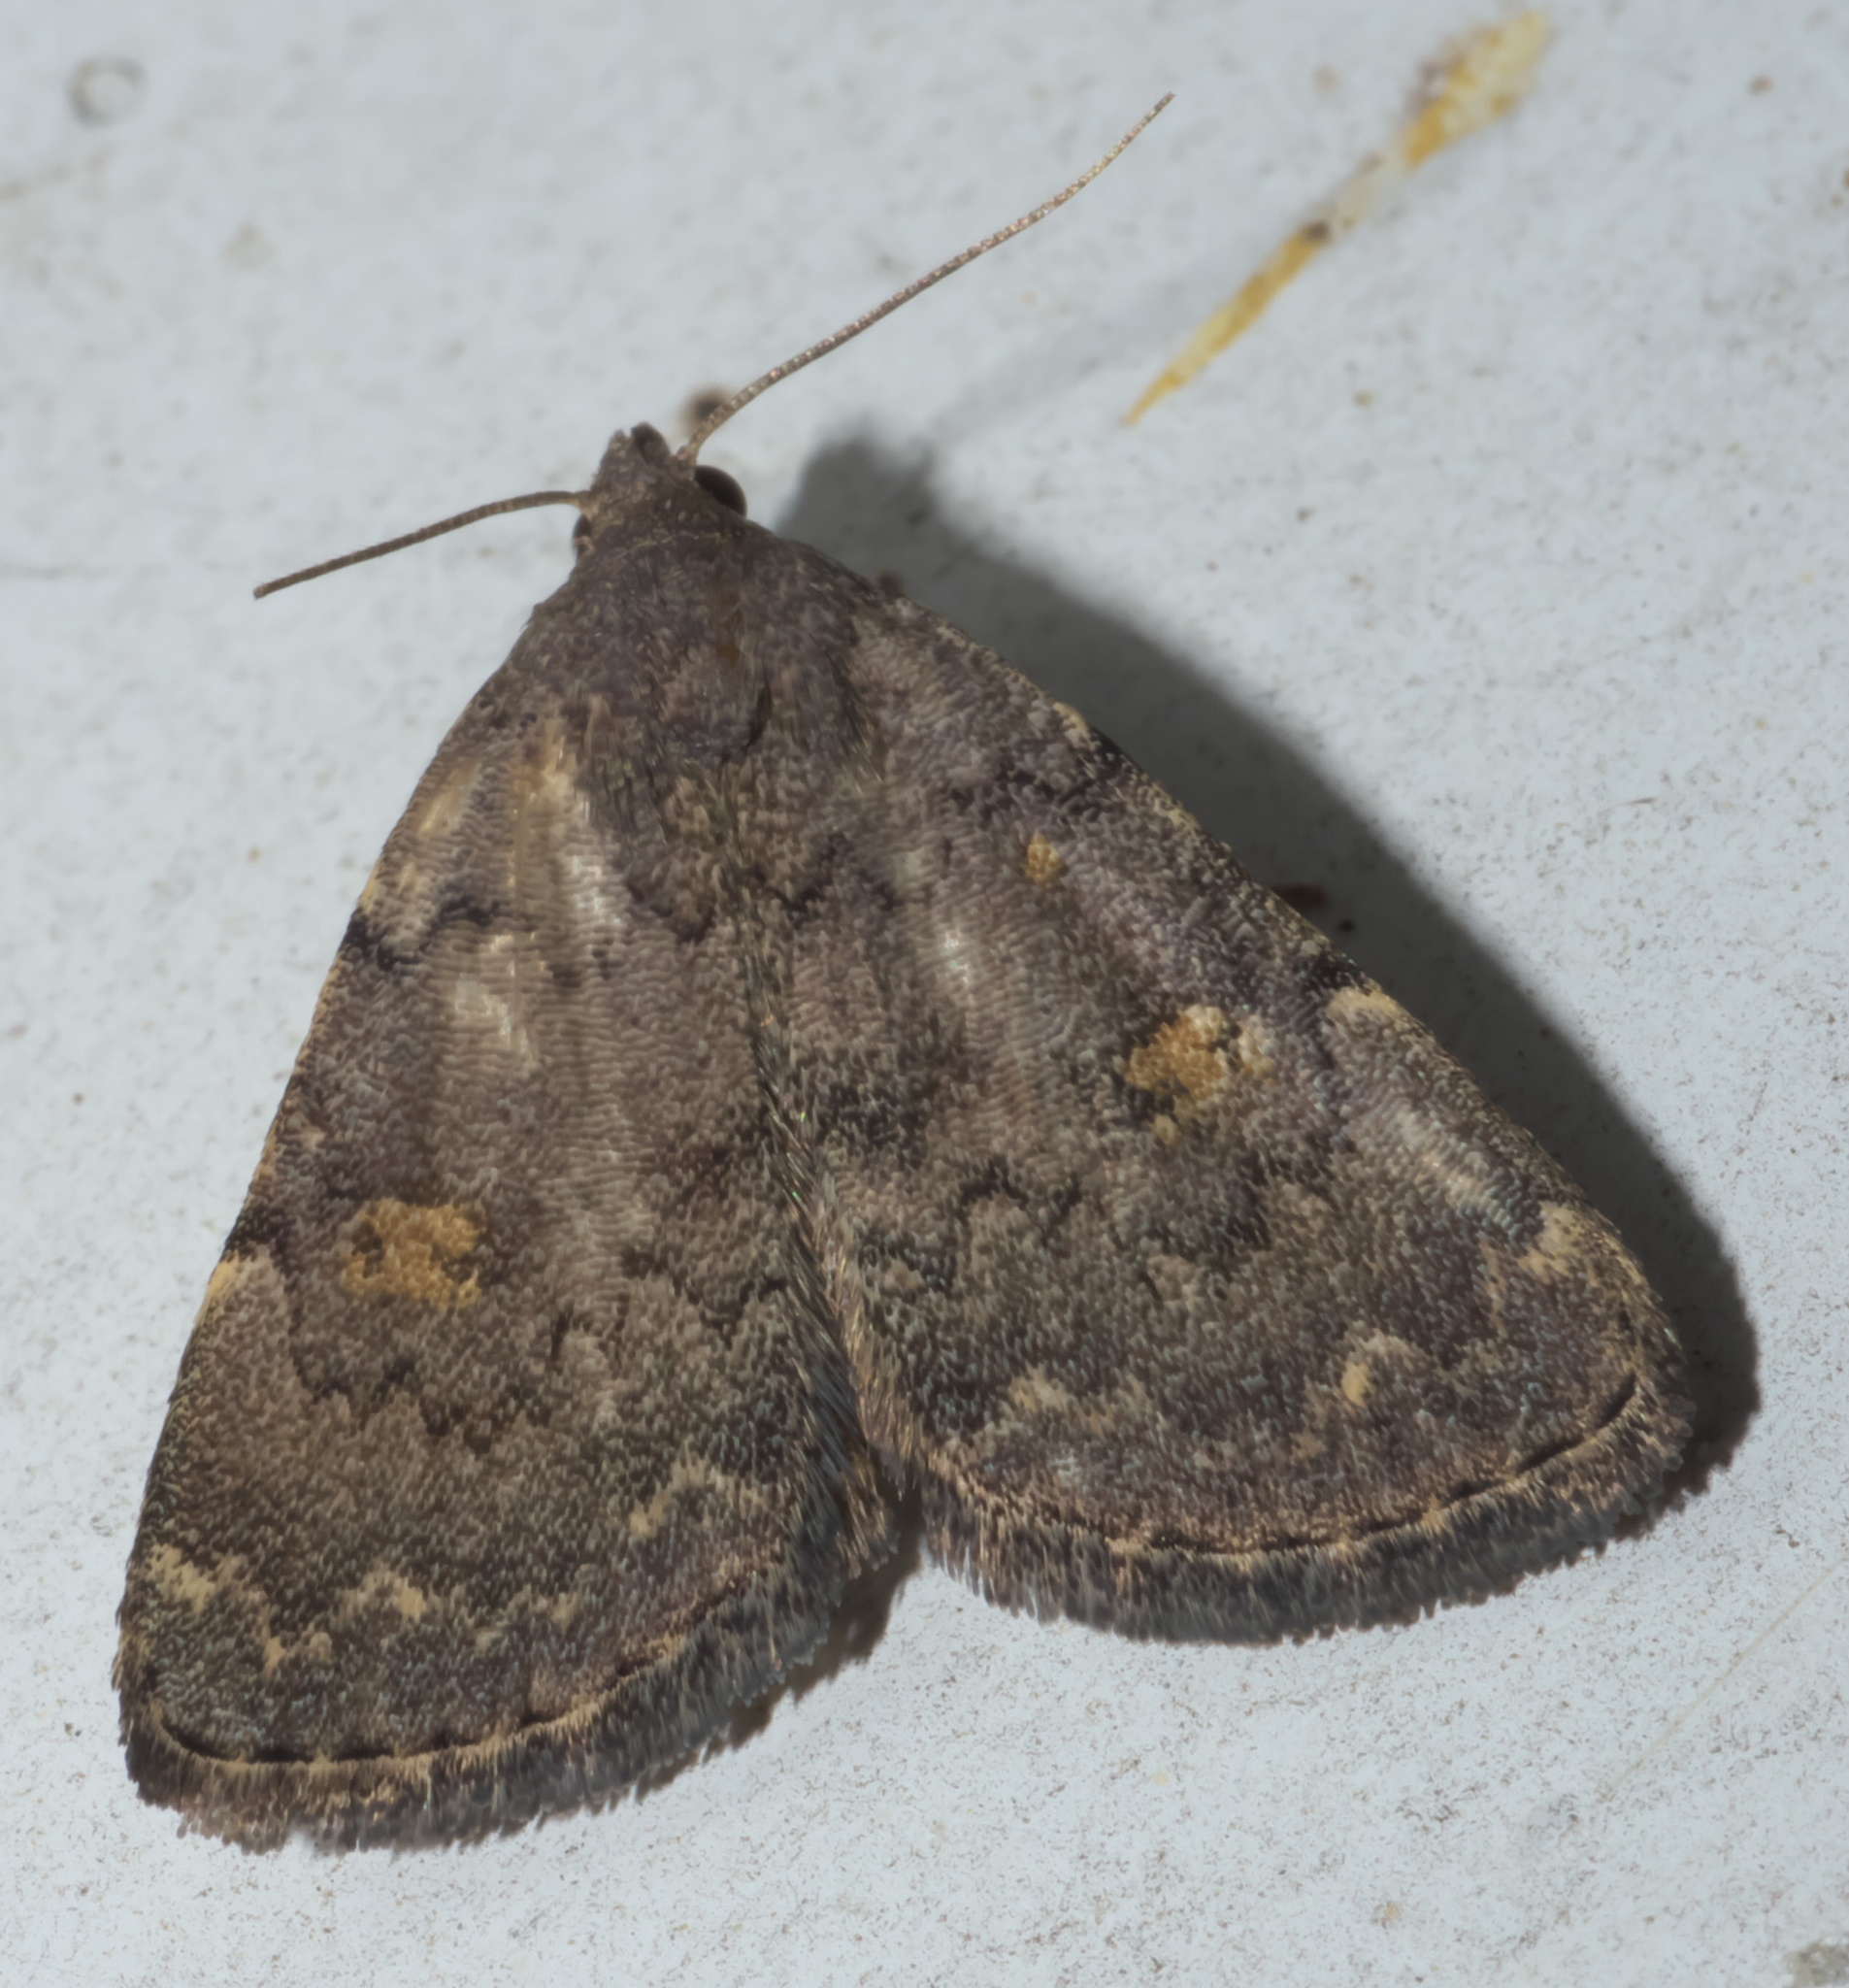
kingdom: Animalia
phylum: Arthropoda
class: Insecta
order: Lepidoptera
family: Erebidae
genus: Idia
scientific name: Idia aemula
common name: Common idia moth
